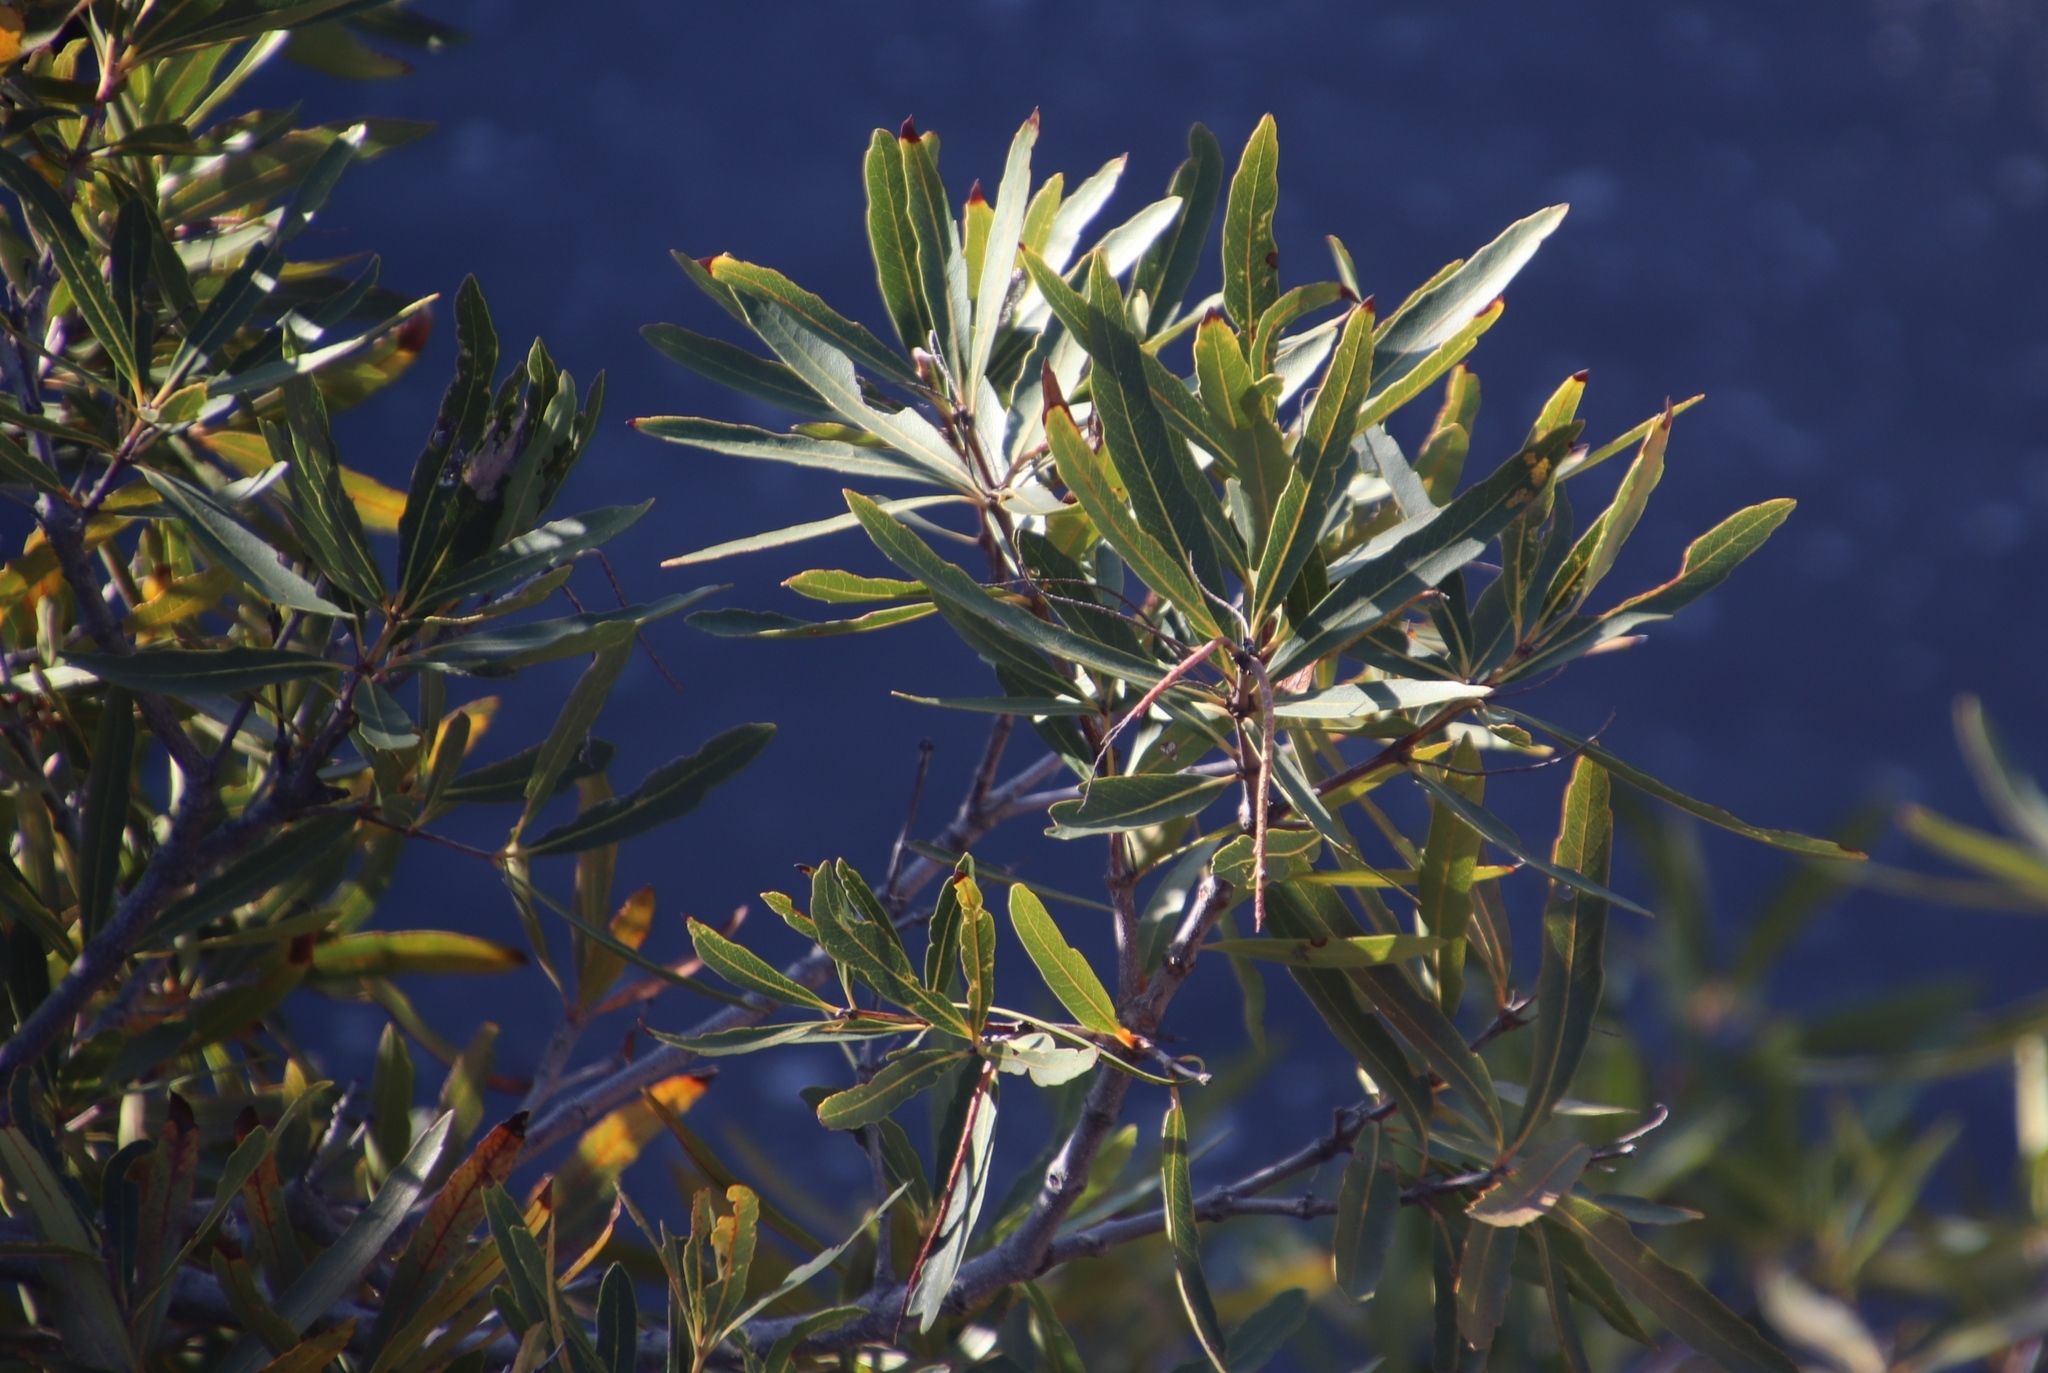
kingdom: Plantae
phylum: Tracheophyta
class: Magnoliopsida
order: Asterales
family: Asteraceae
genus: Brachylaena
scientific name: Brachylaena neriifolia
